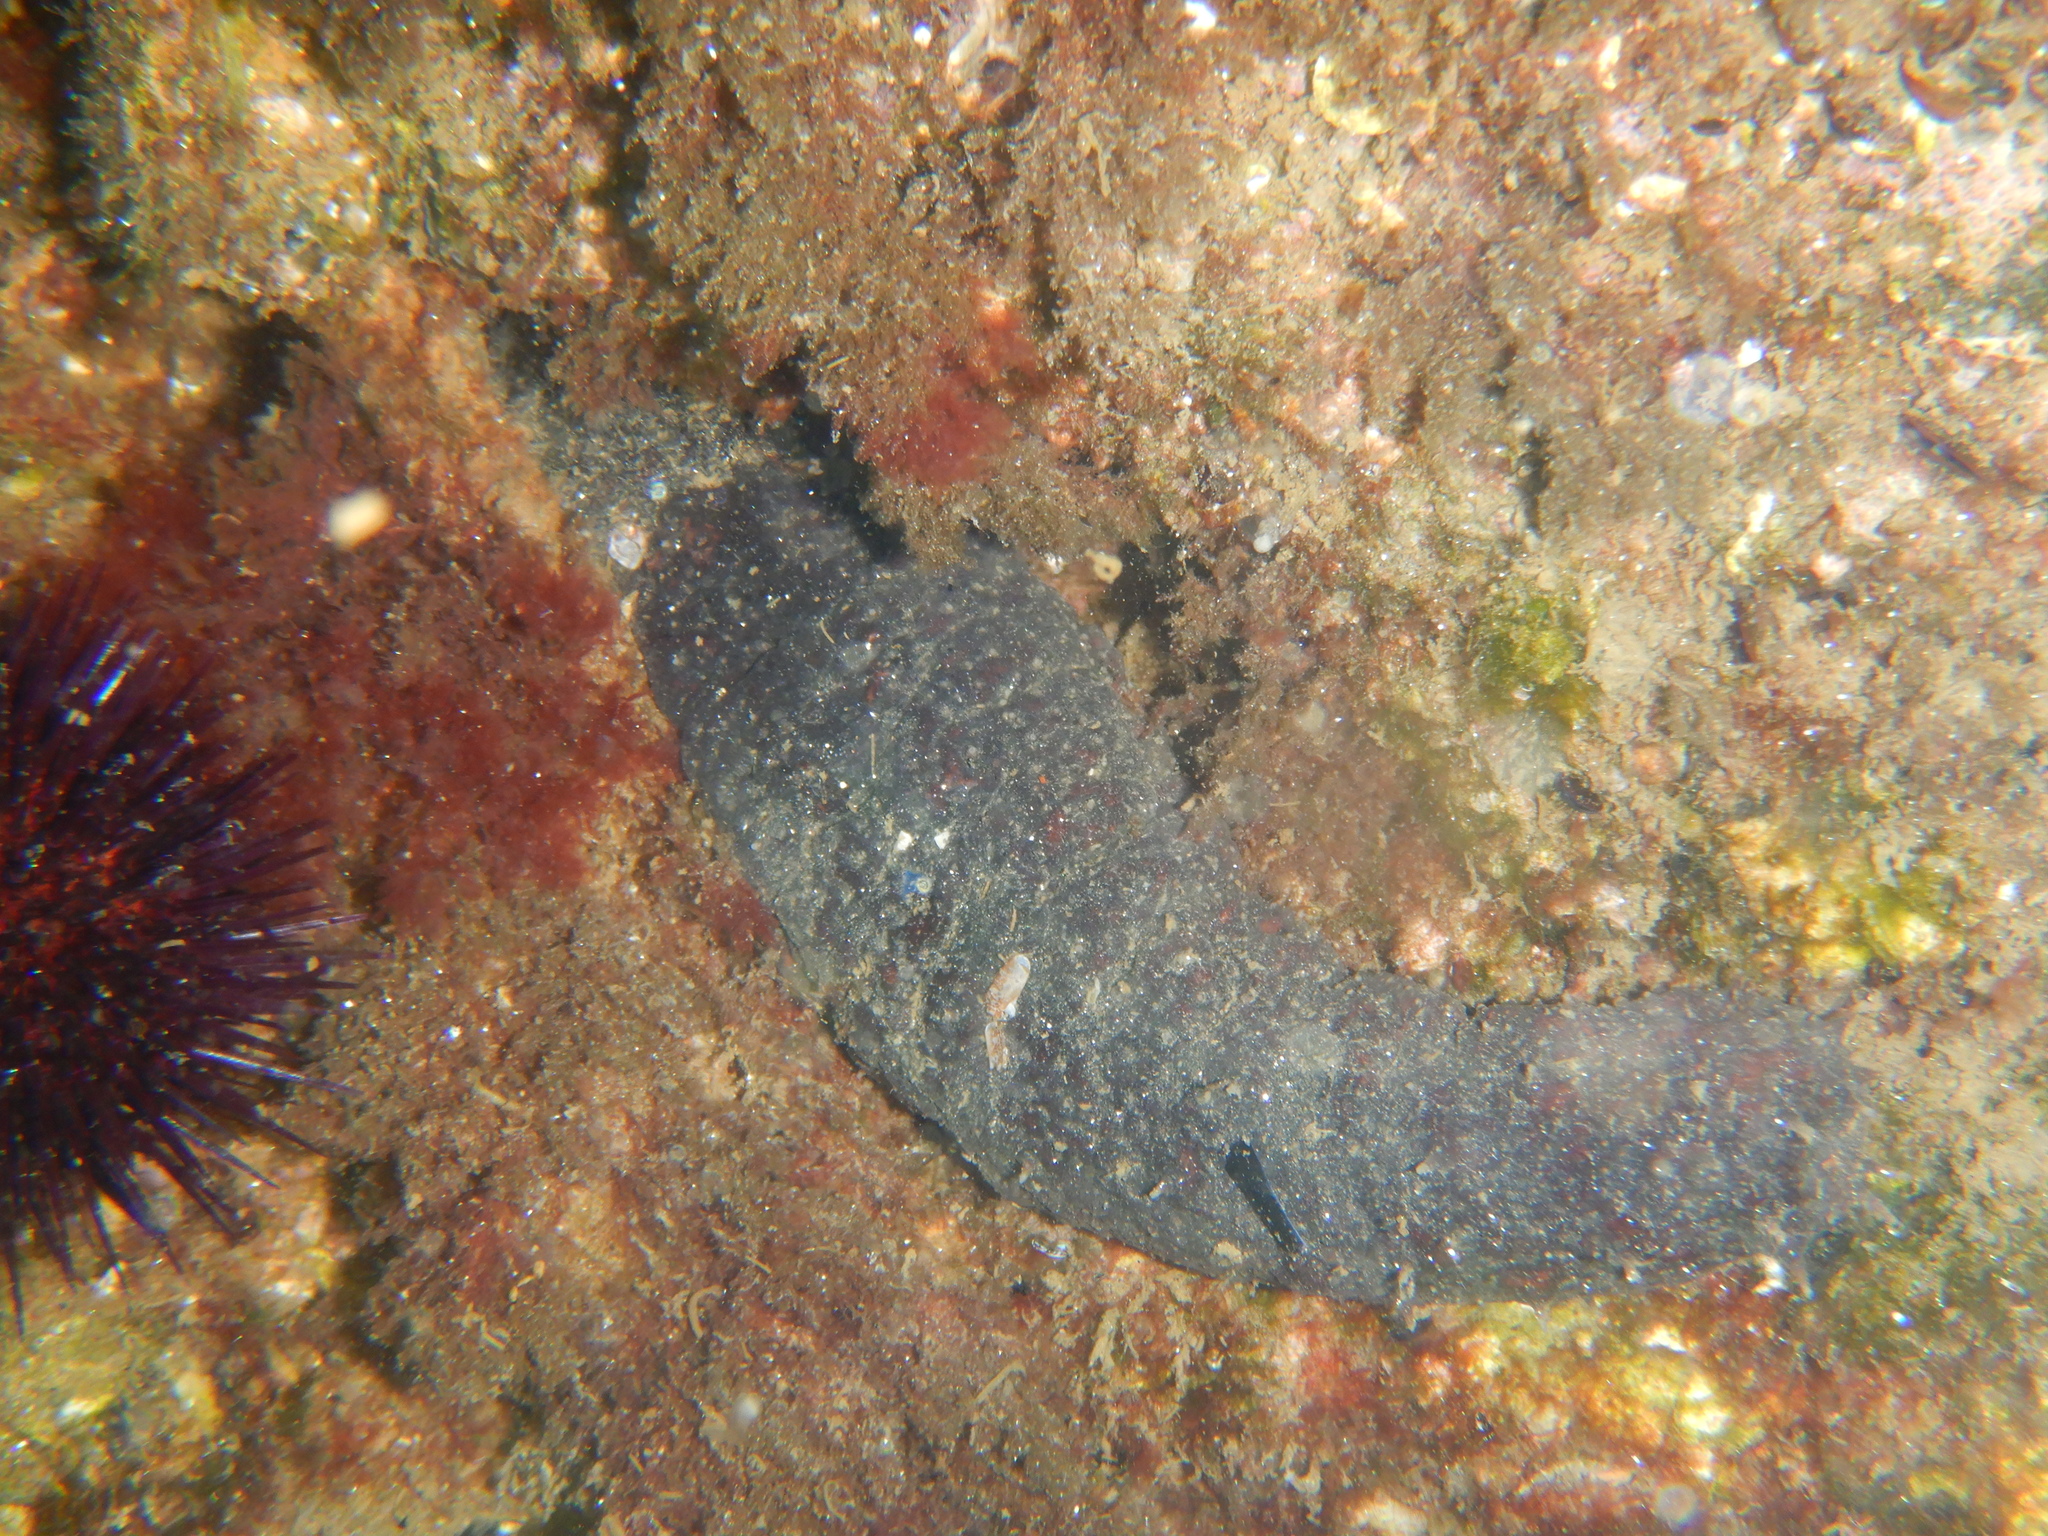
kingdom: Animalia
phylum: Echinodermata
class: Holothuroidea
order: Holothuriida
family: Holothuriidae
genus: Holothuria
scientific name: Holothuria
